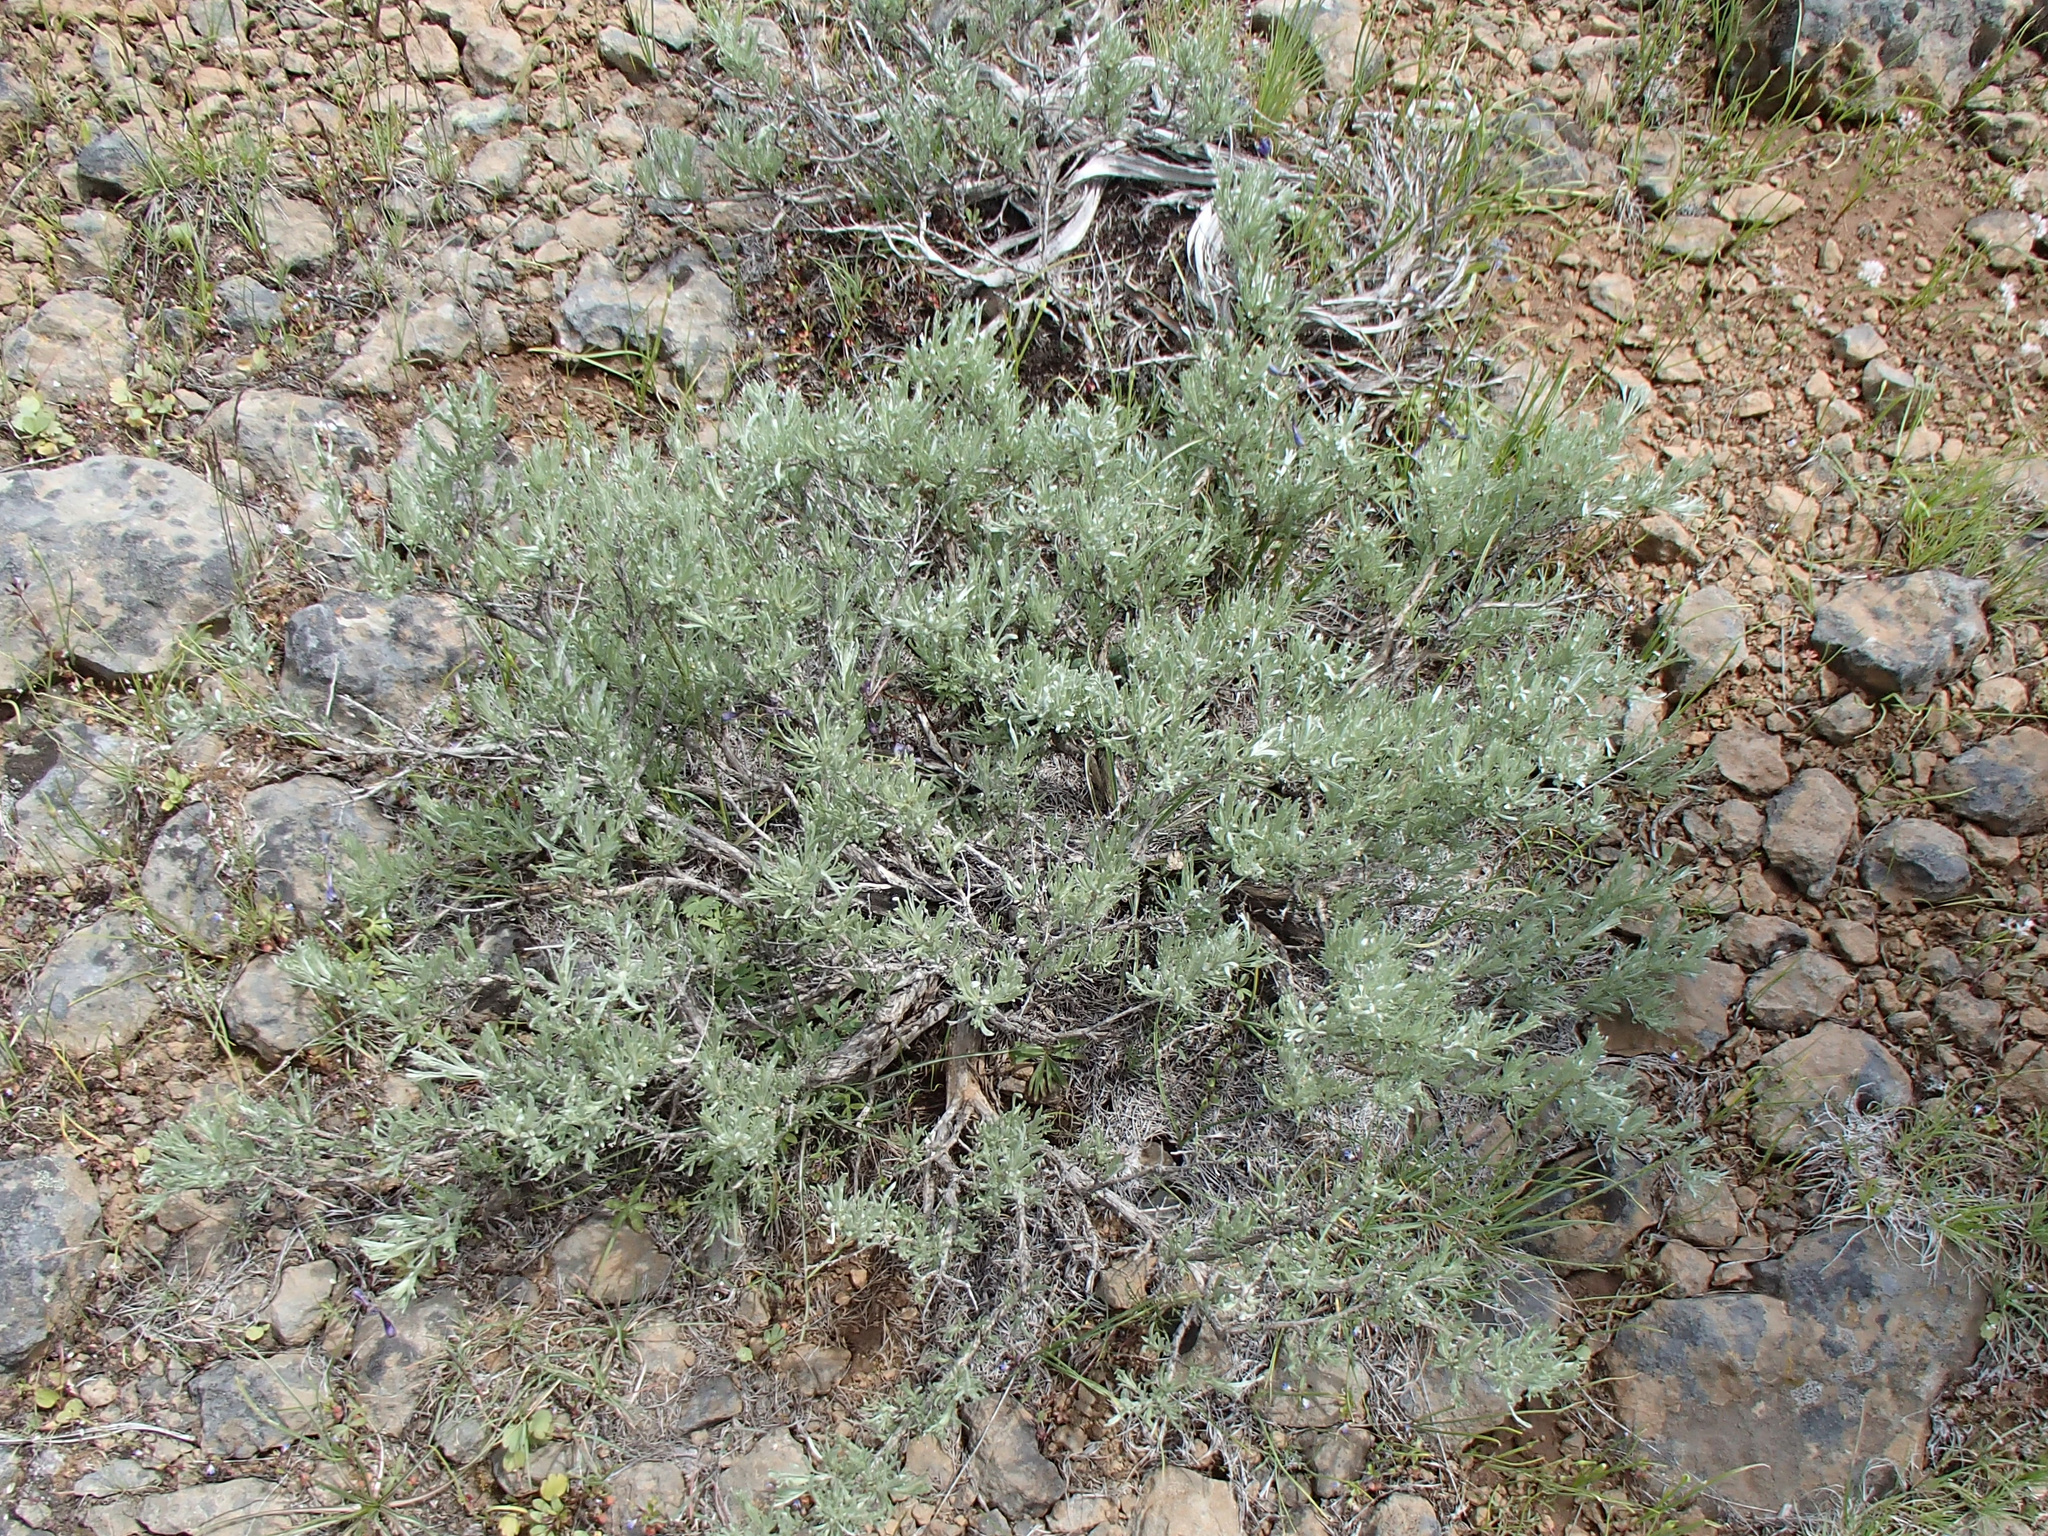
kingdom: Plantae
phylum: Tracheophyta
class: Magnoliopsida
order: Asterales
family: Asteraceae
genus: Artemisia
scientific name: Artemisia rigida
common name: Scabland sagebrush
